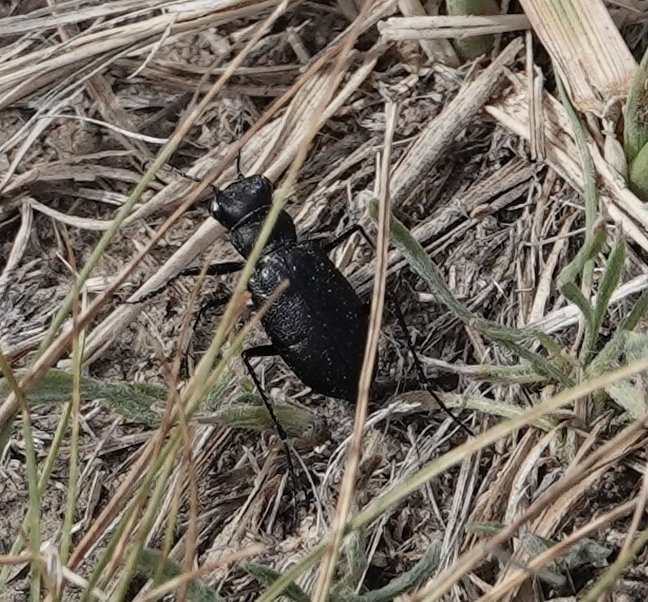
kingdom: Animalia
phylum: Arthropoda
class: Insecta
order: Coleoptera
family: Carabidae
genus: Cicindela
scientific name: Cicindela nebraskana
